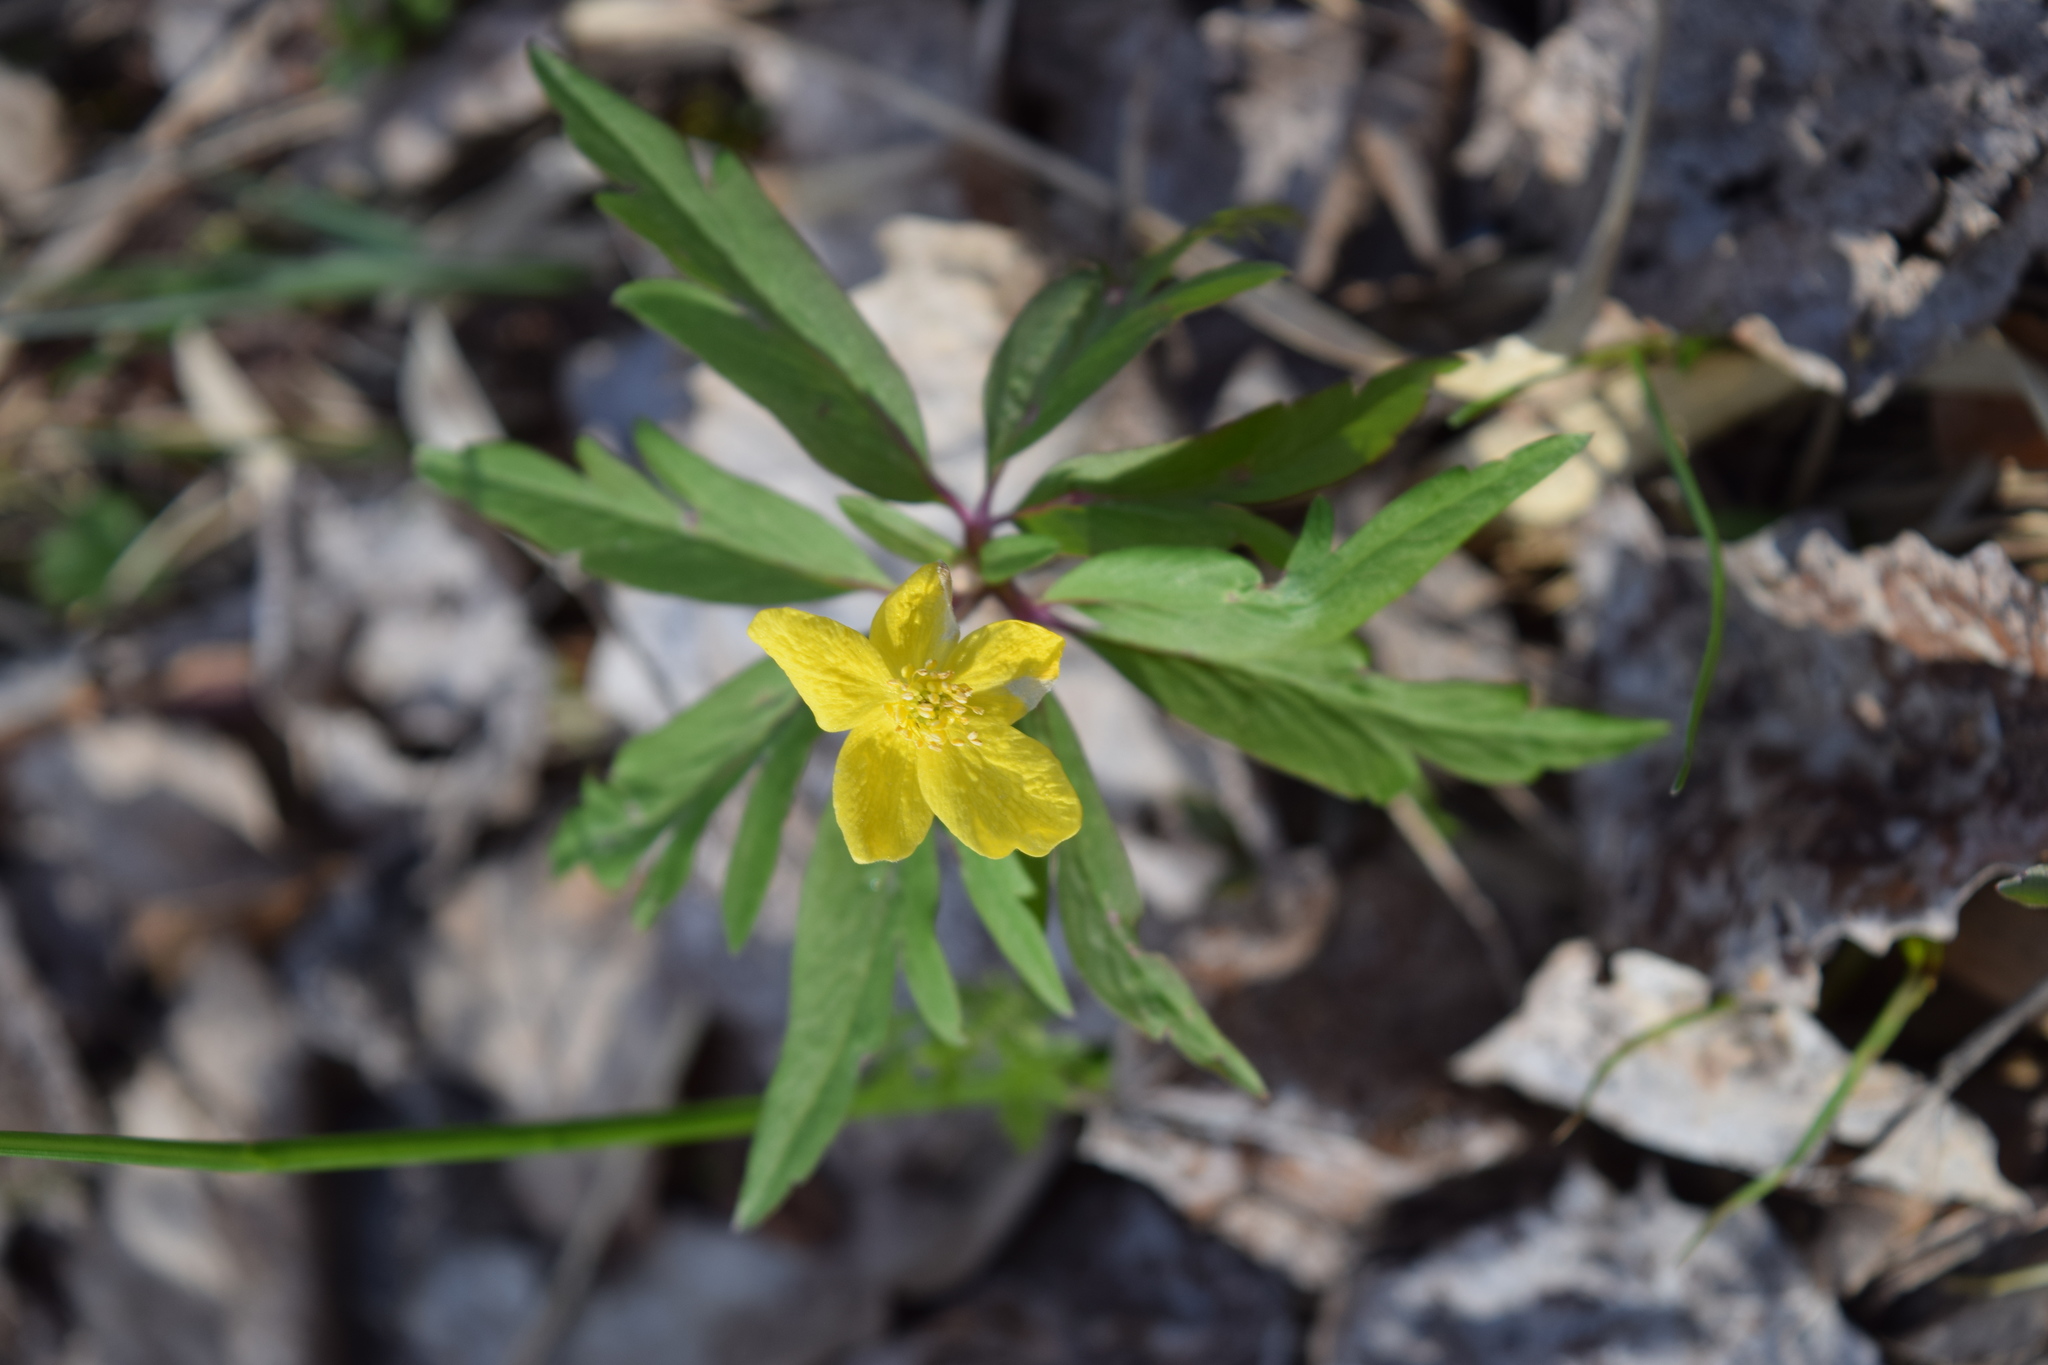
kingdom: Plantae
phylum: Tracheophyta
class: Magnoliopsida
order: Ranunculales
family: Ranunculaceae
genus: Anemone
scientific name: Anemone ranunculoides
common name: Yellow anemone
